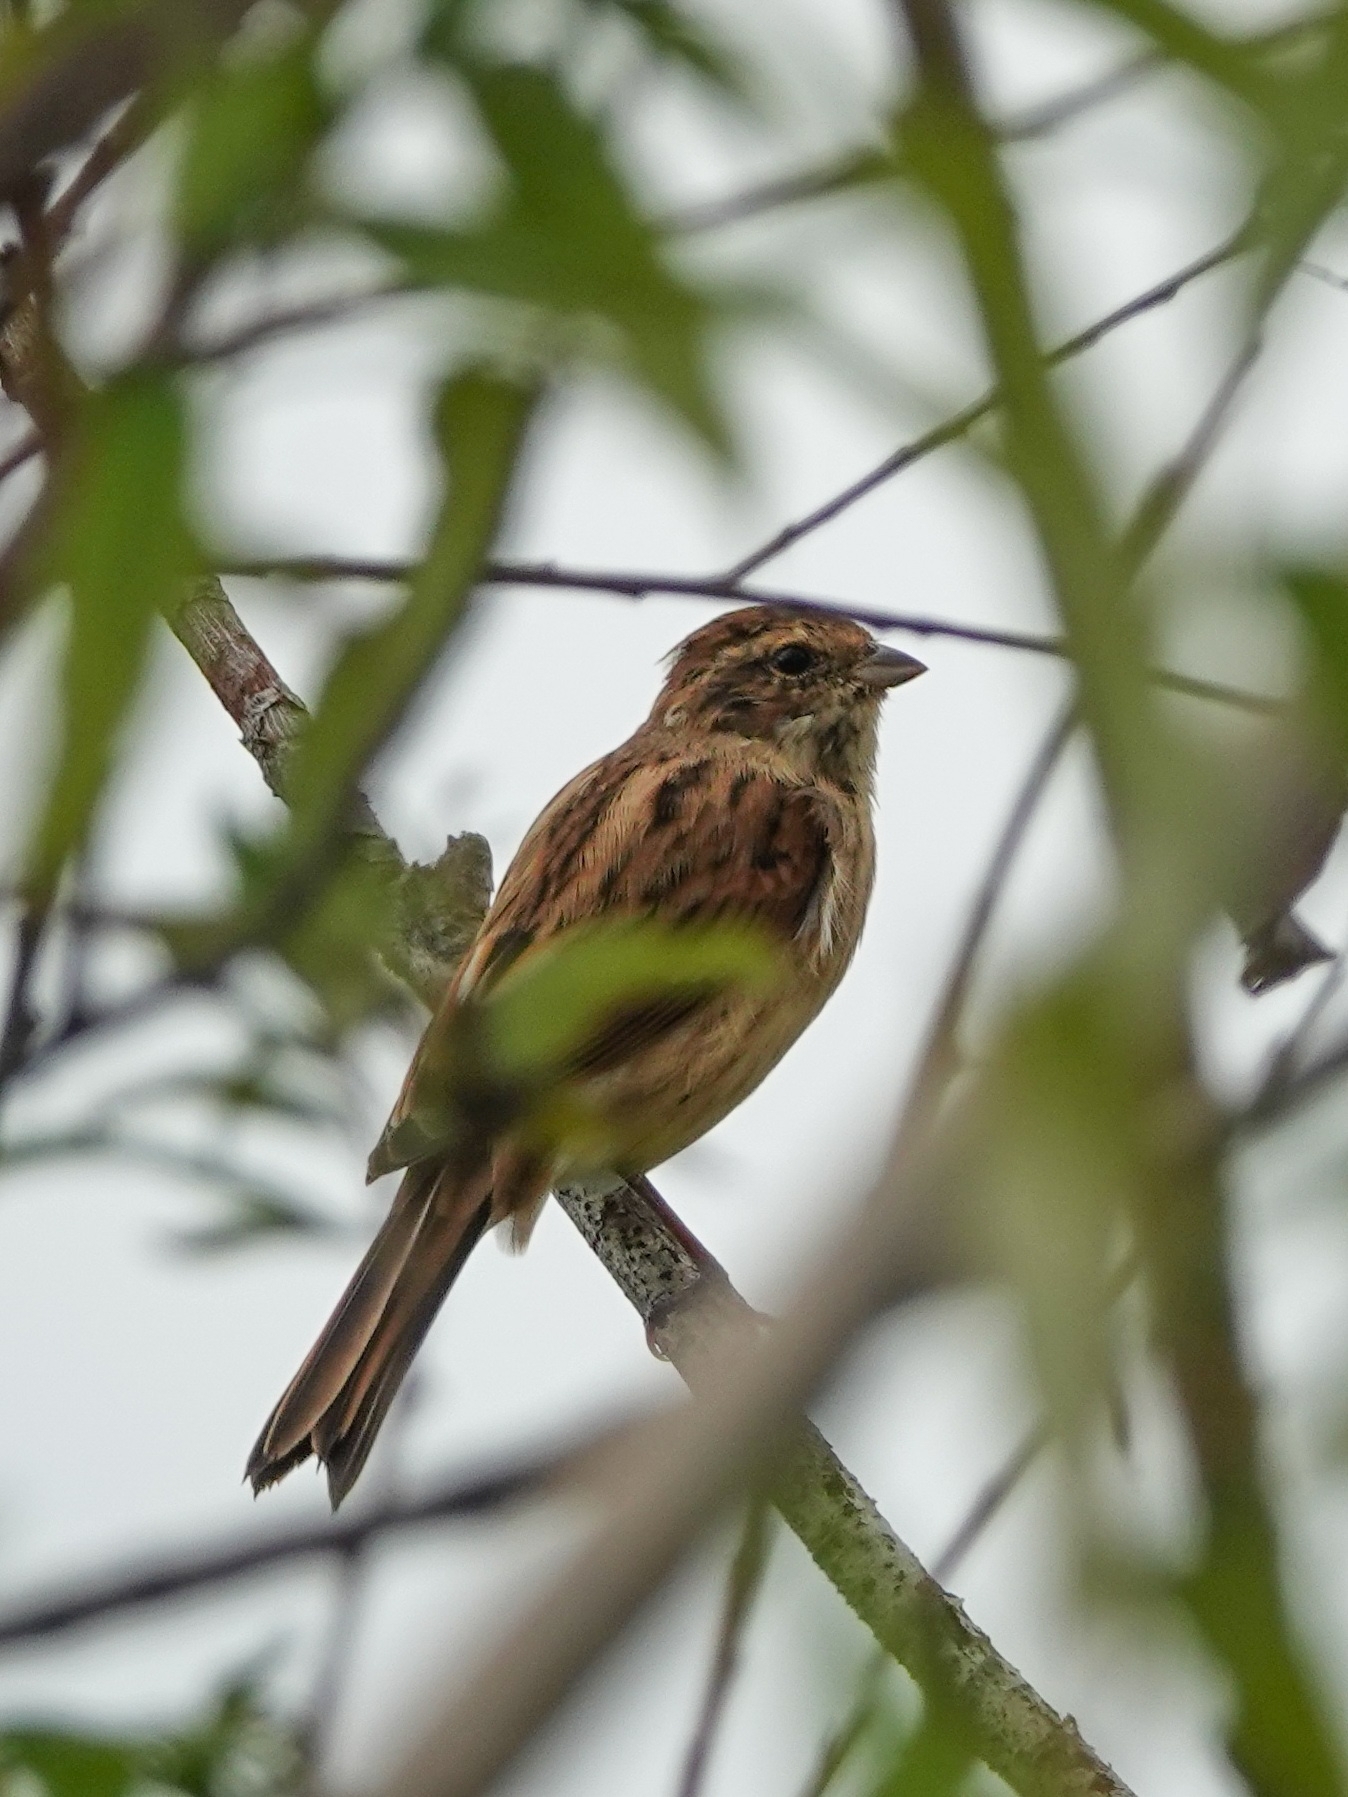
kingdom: Animalia
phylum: Chordata
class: Aves
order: Passeriformes
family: Emberizidae
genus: Emberiza
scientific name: Emberiza schoeniclus
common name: Reed bunting
